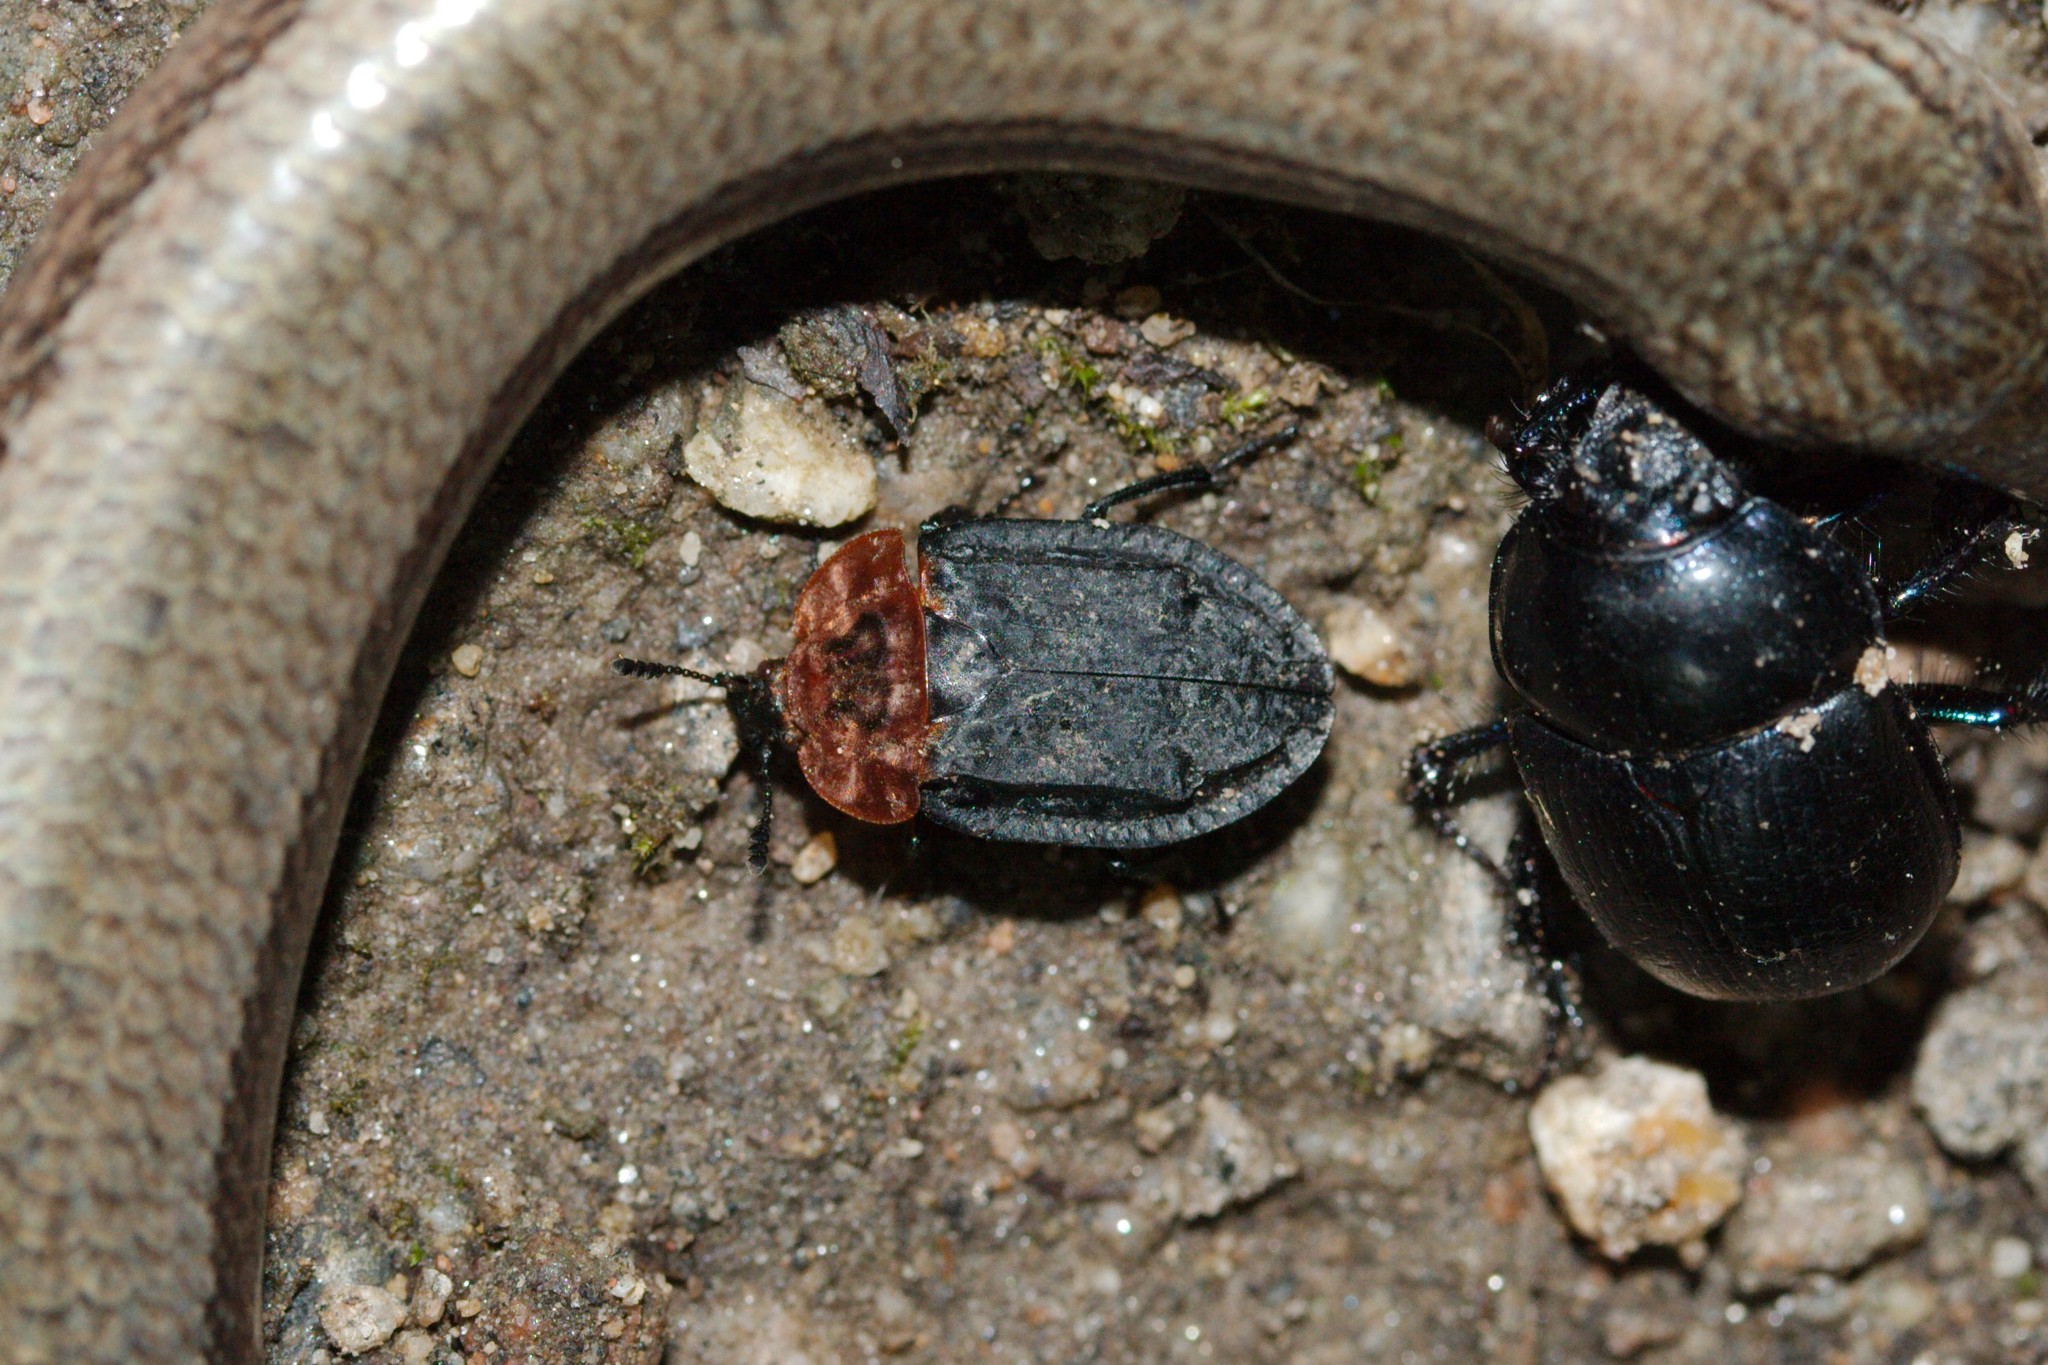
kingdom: Animalia
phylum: Arthropoda
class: Insecta
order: Coleoptera
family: Staphylinidae
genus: Oiceoptoma
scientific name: Oiceoptoma thoracicum
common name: Red-breasted carrion beetle
